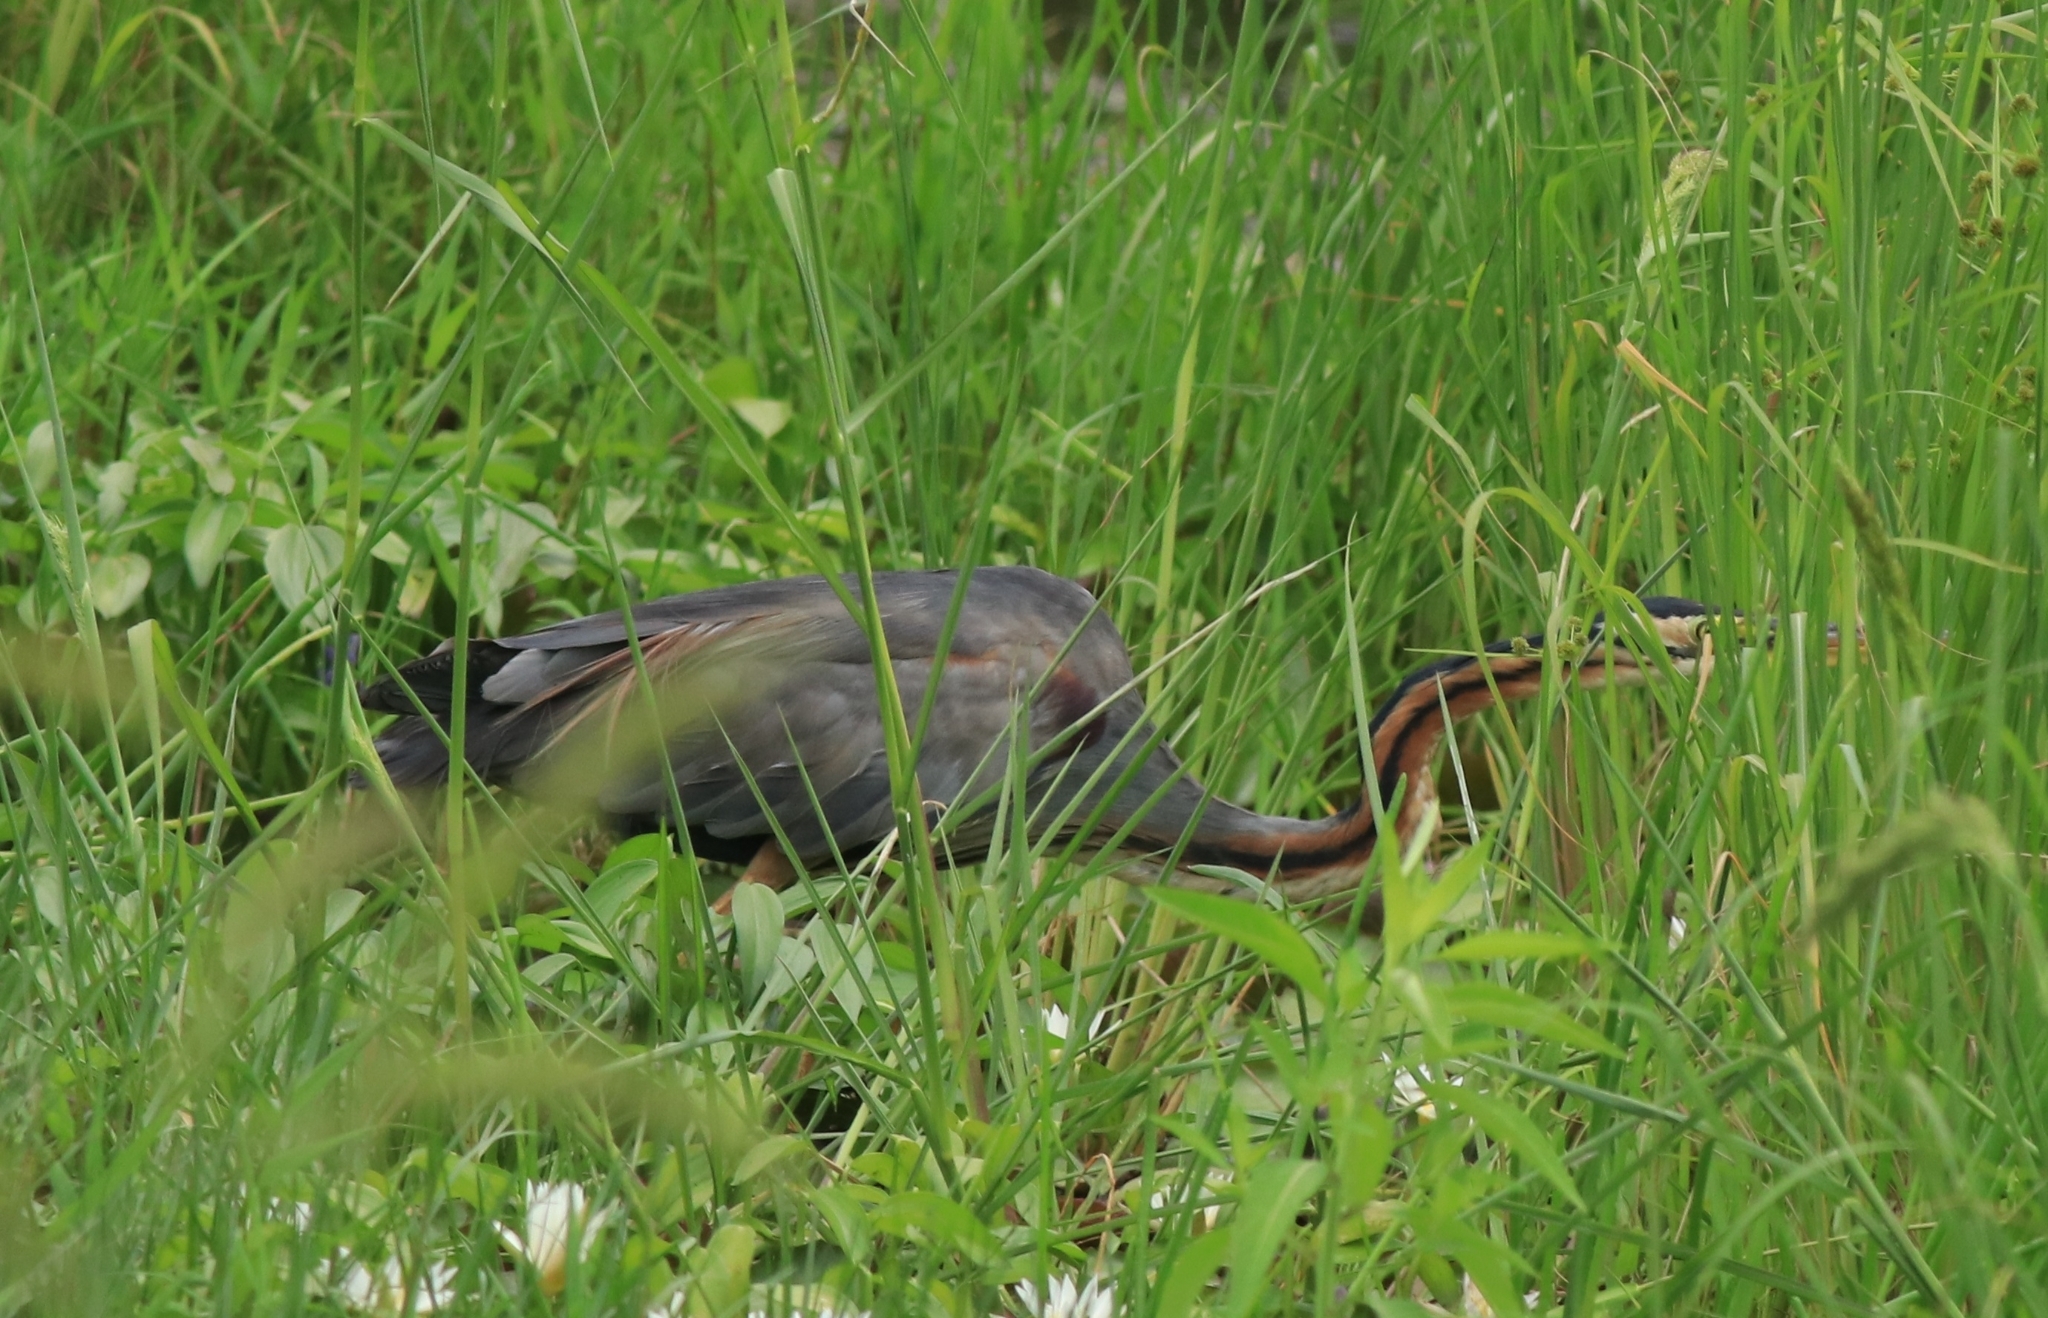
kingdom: Animalia
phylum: Chordata
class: Aves
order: Pelecaniformes
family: Ardeidae
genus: Ardea
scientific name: Ardea purpurea
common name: Purple heron
